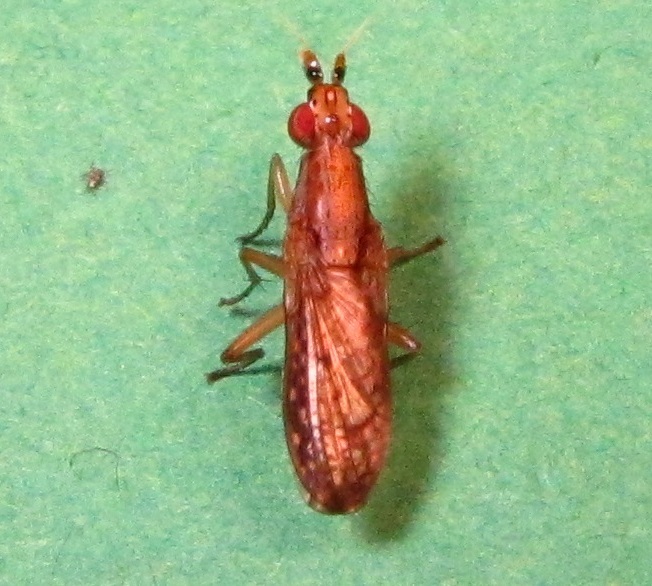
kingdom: Animalia
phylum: Arthropoda
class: Insecta
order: Diptera
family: Sciomyzidae
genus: Limnia
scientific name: Limnia shannoni
